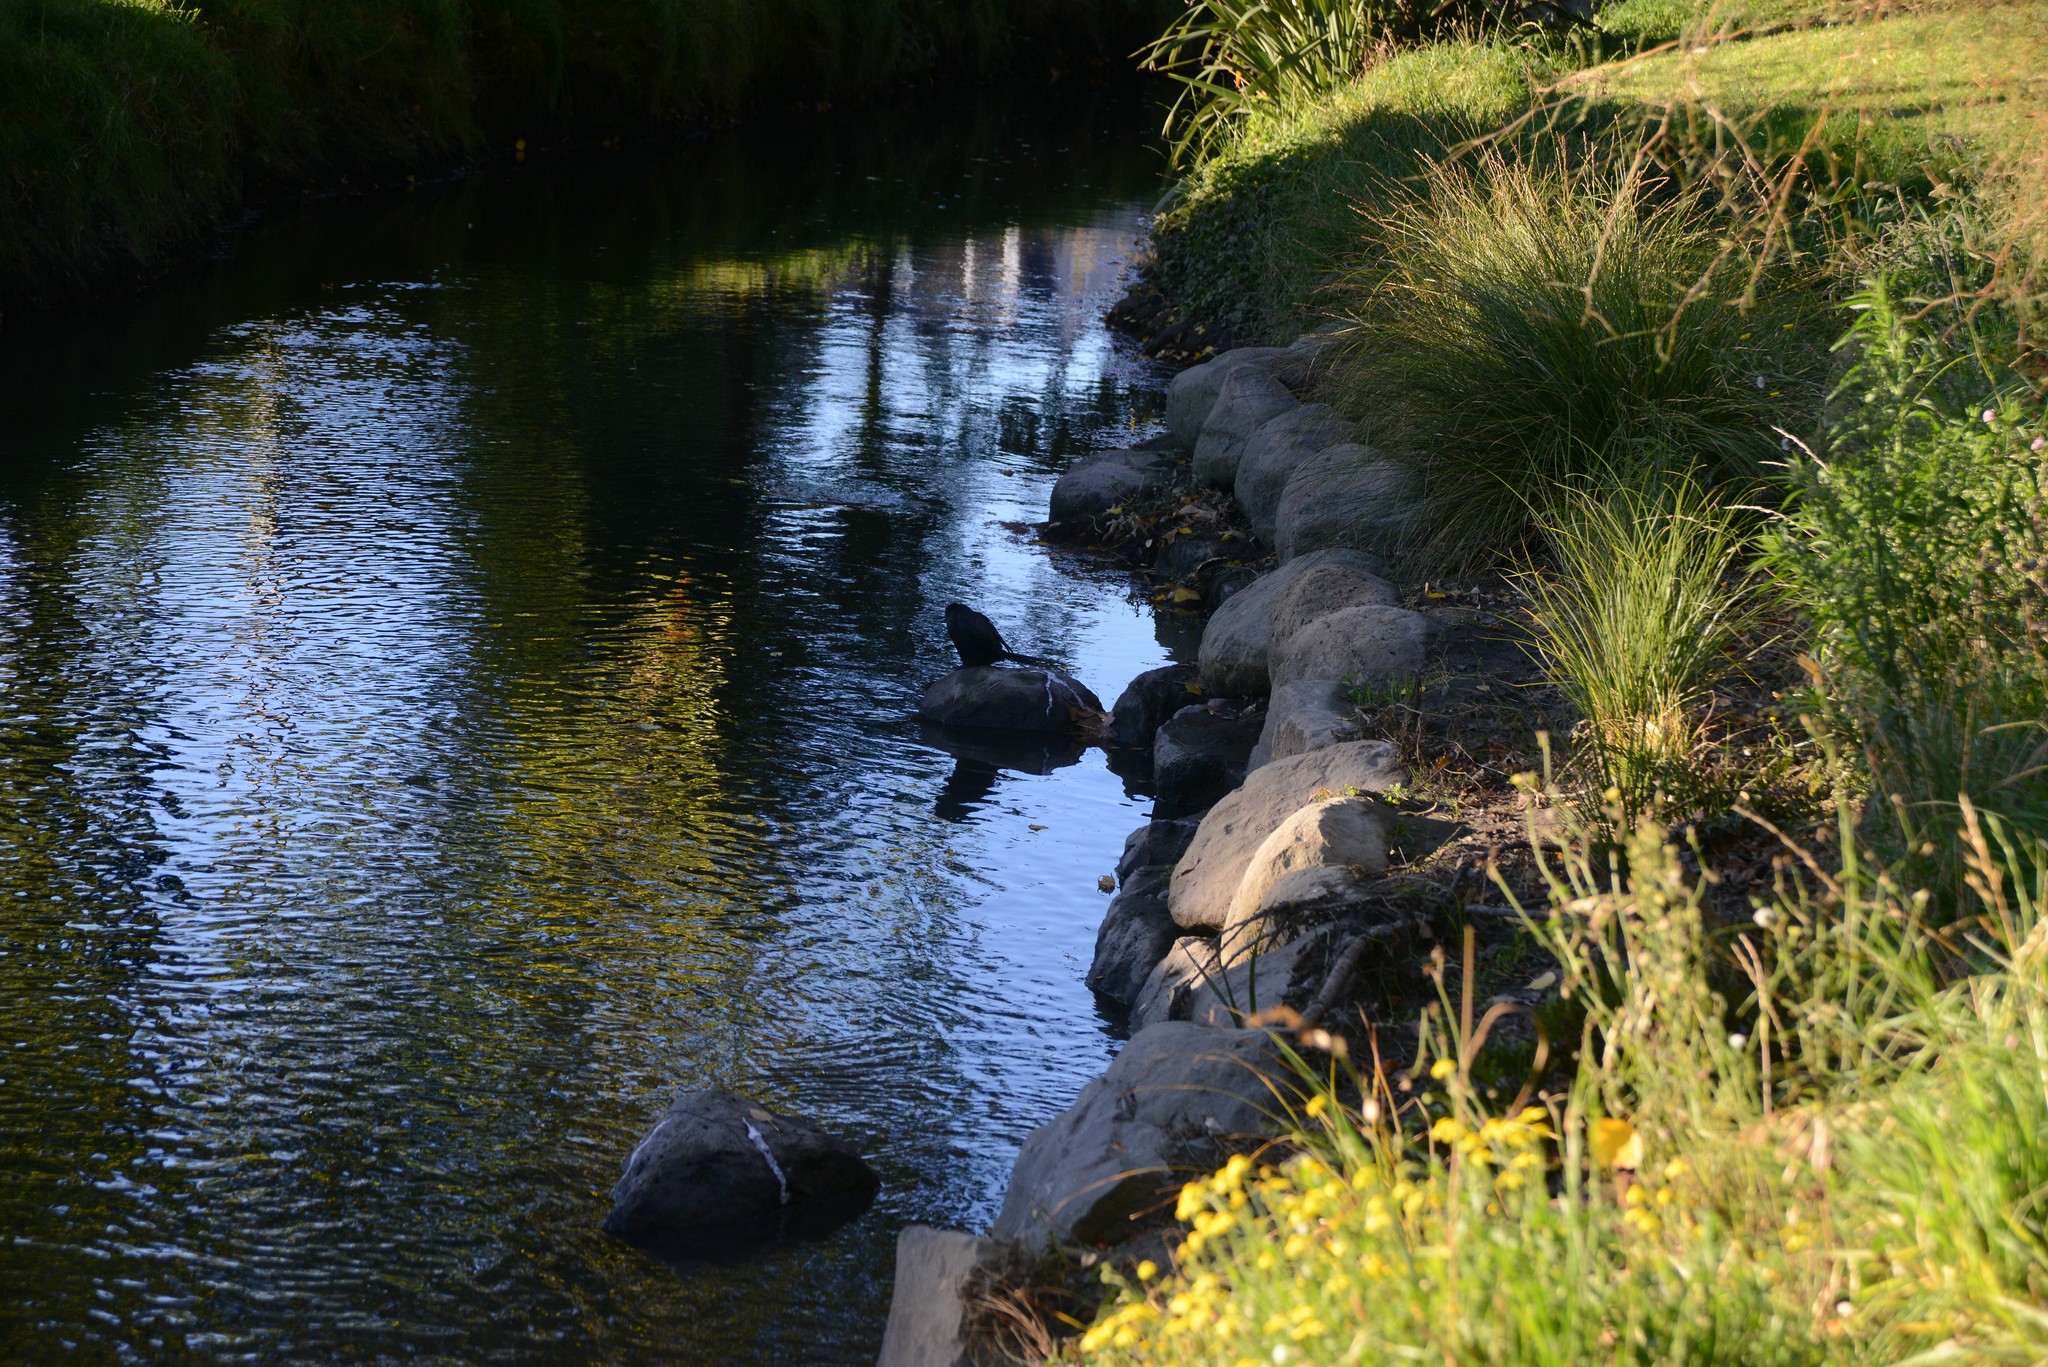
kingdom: Animalia
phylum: Chordata
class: Aves
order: Suliformes
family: Phalacrocoracidae
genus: Microcarbo
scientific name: Microcarbo melanoleucos
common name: Little pied cormorant
